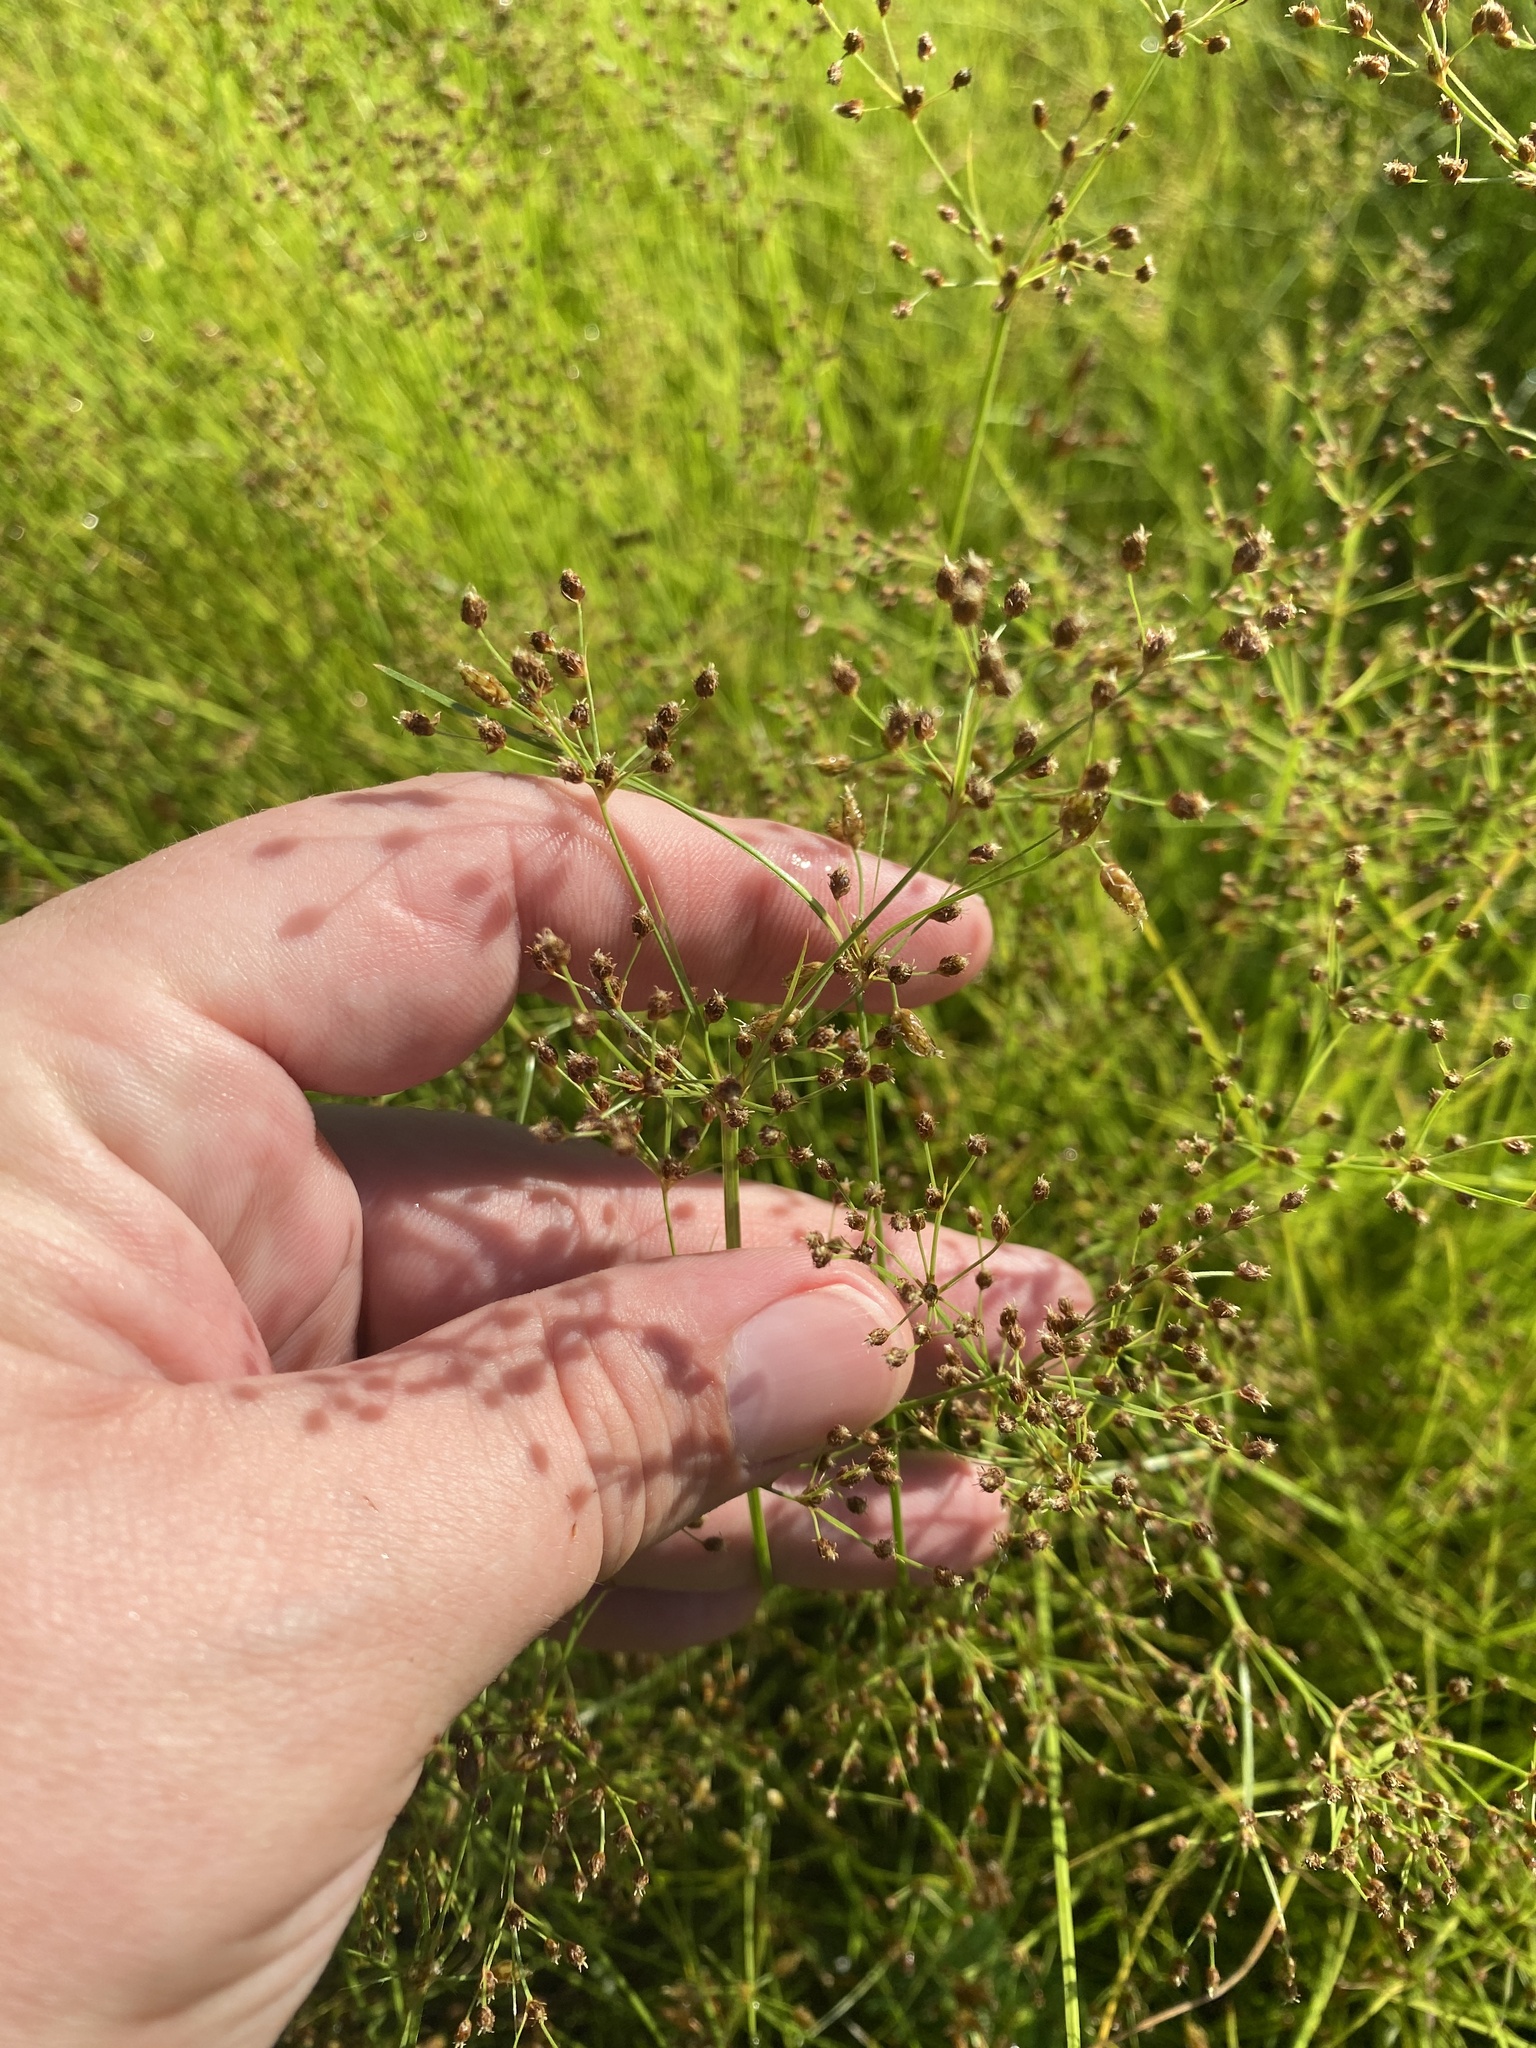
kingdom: Plantae
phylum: Tracheophyta
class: Liliopsida
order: Poales
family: Cyperaceae
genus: Fimbristylis
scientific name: Fimbristylis littoralis
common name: Fimbry
